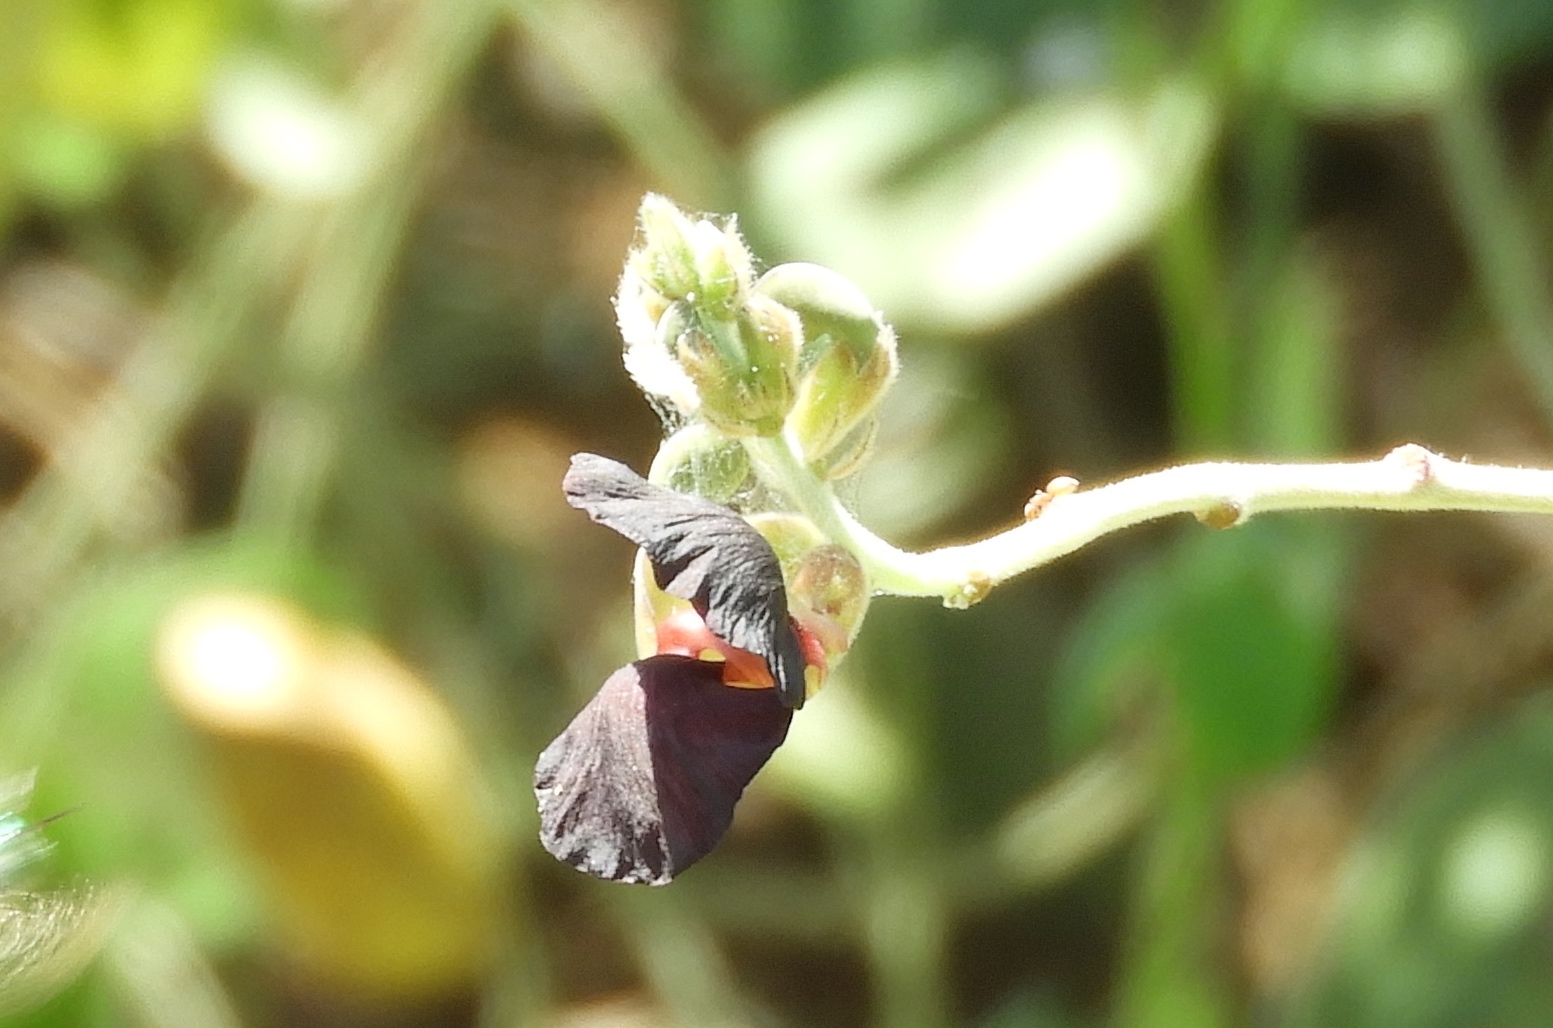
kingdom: Plantae
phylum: Tracheophyta
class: Magnoliopsida
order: Fabales
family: Fabaceae
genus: Macroptilium
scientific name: Macroptilium atropurpureum
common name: Purple bushbean
